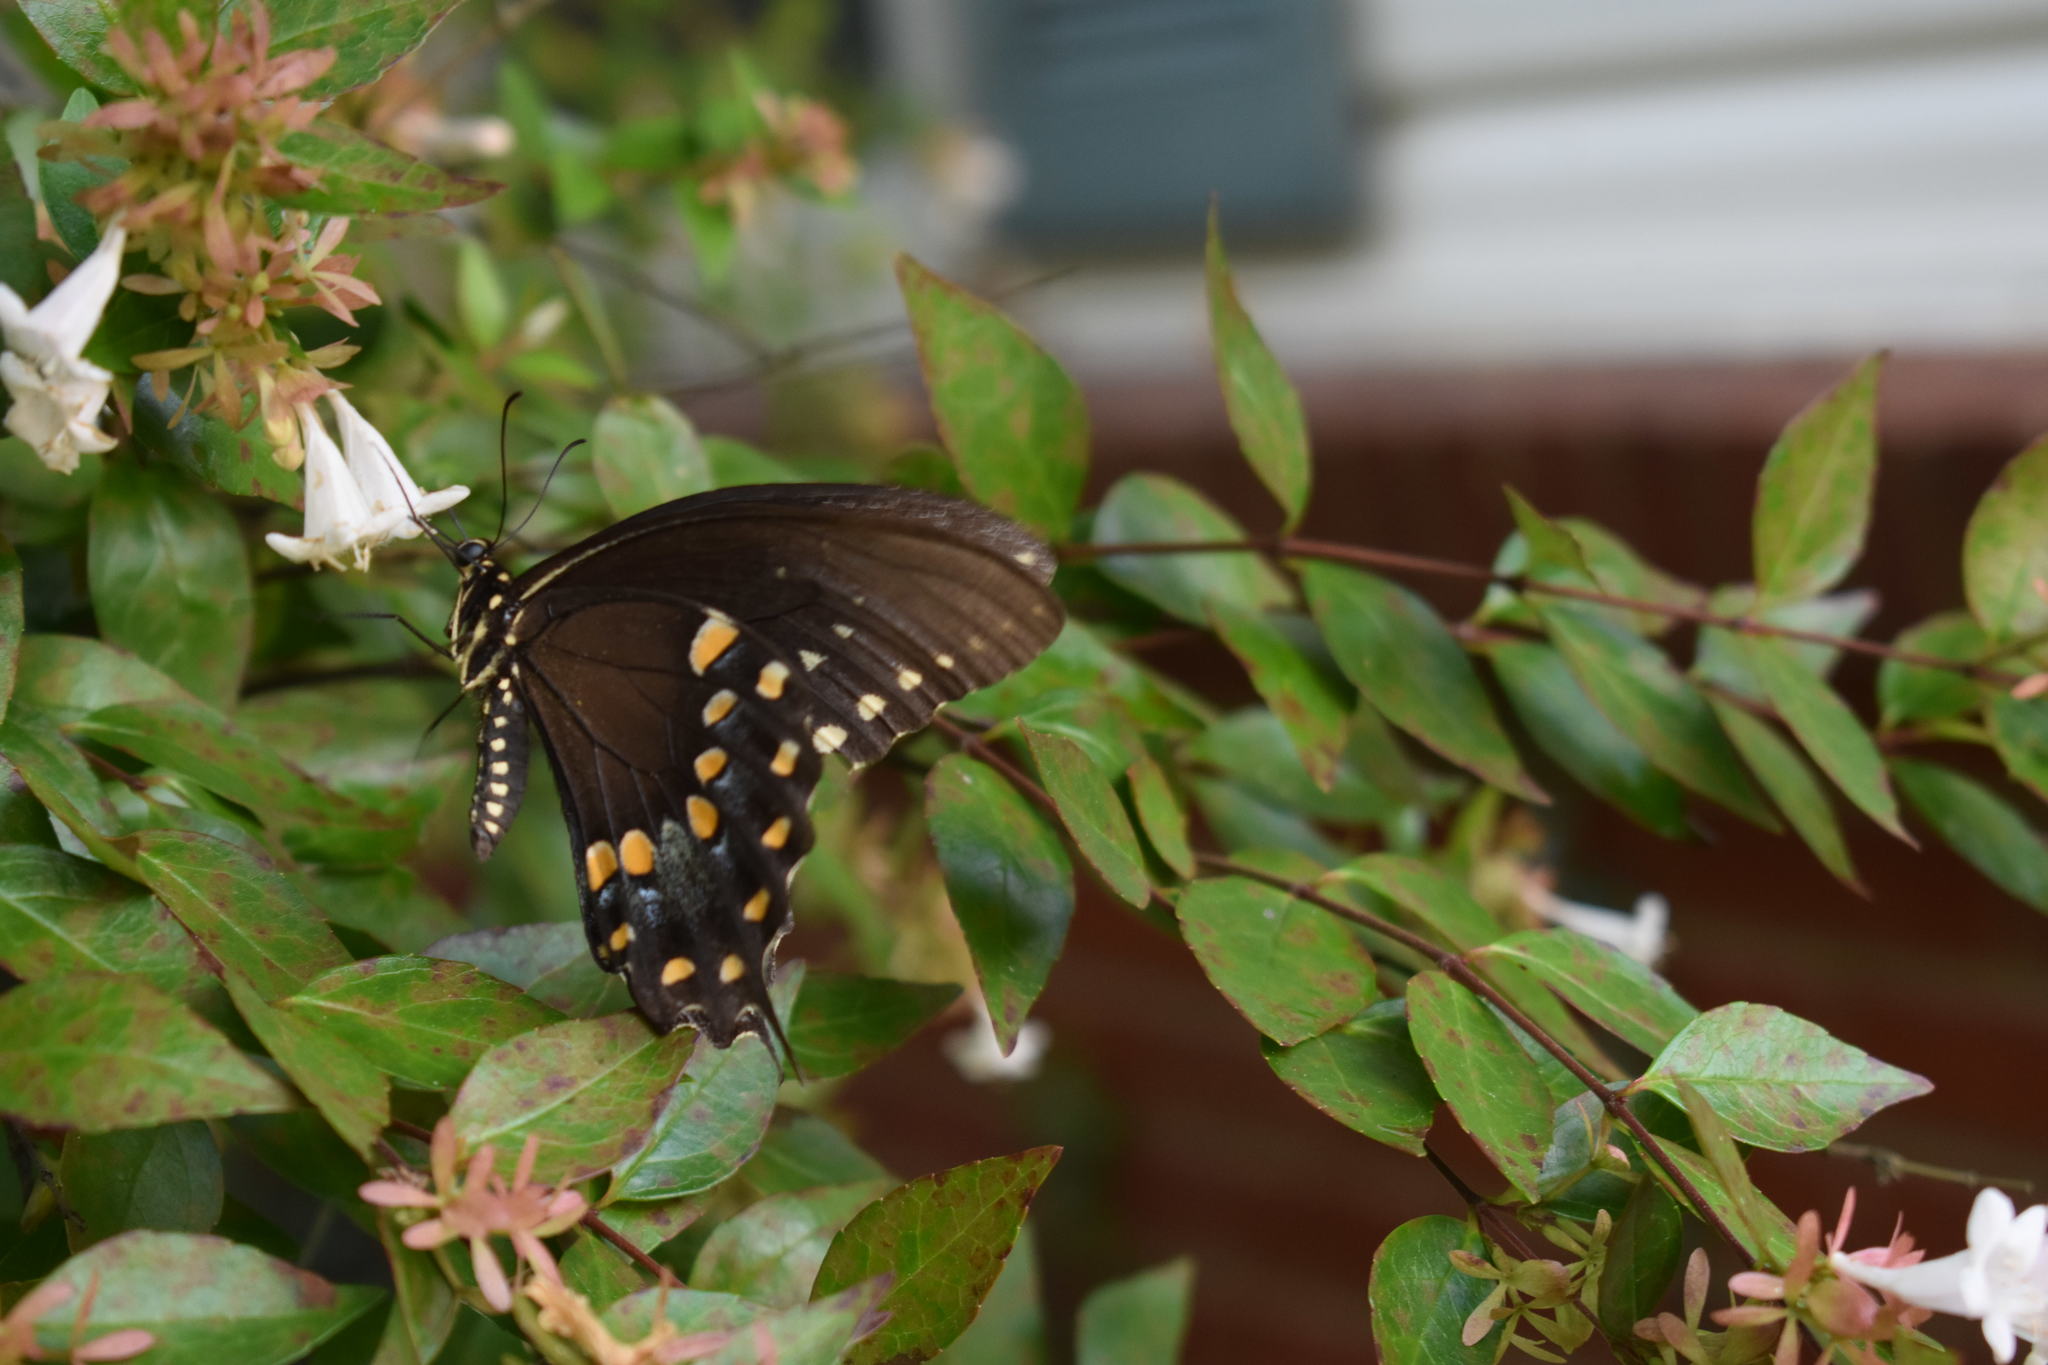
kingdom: Animalia
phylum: Arthropoda
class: Insecta
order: Lepidoptera
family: Papilionidae
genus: Papilio
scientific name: Papilio troilus
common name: Spicebush swallowtail
